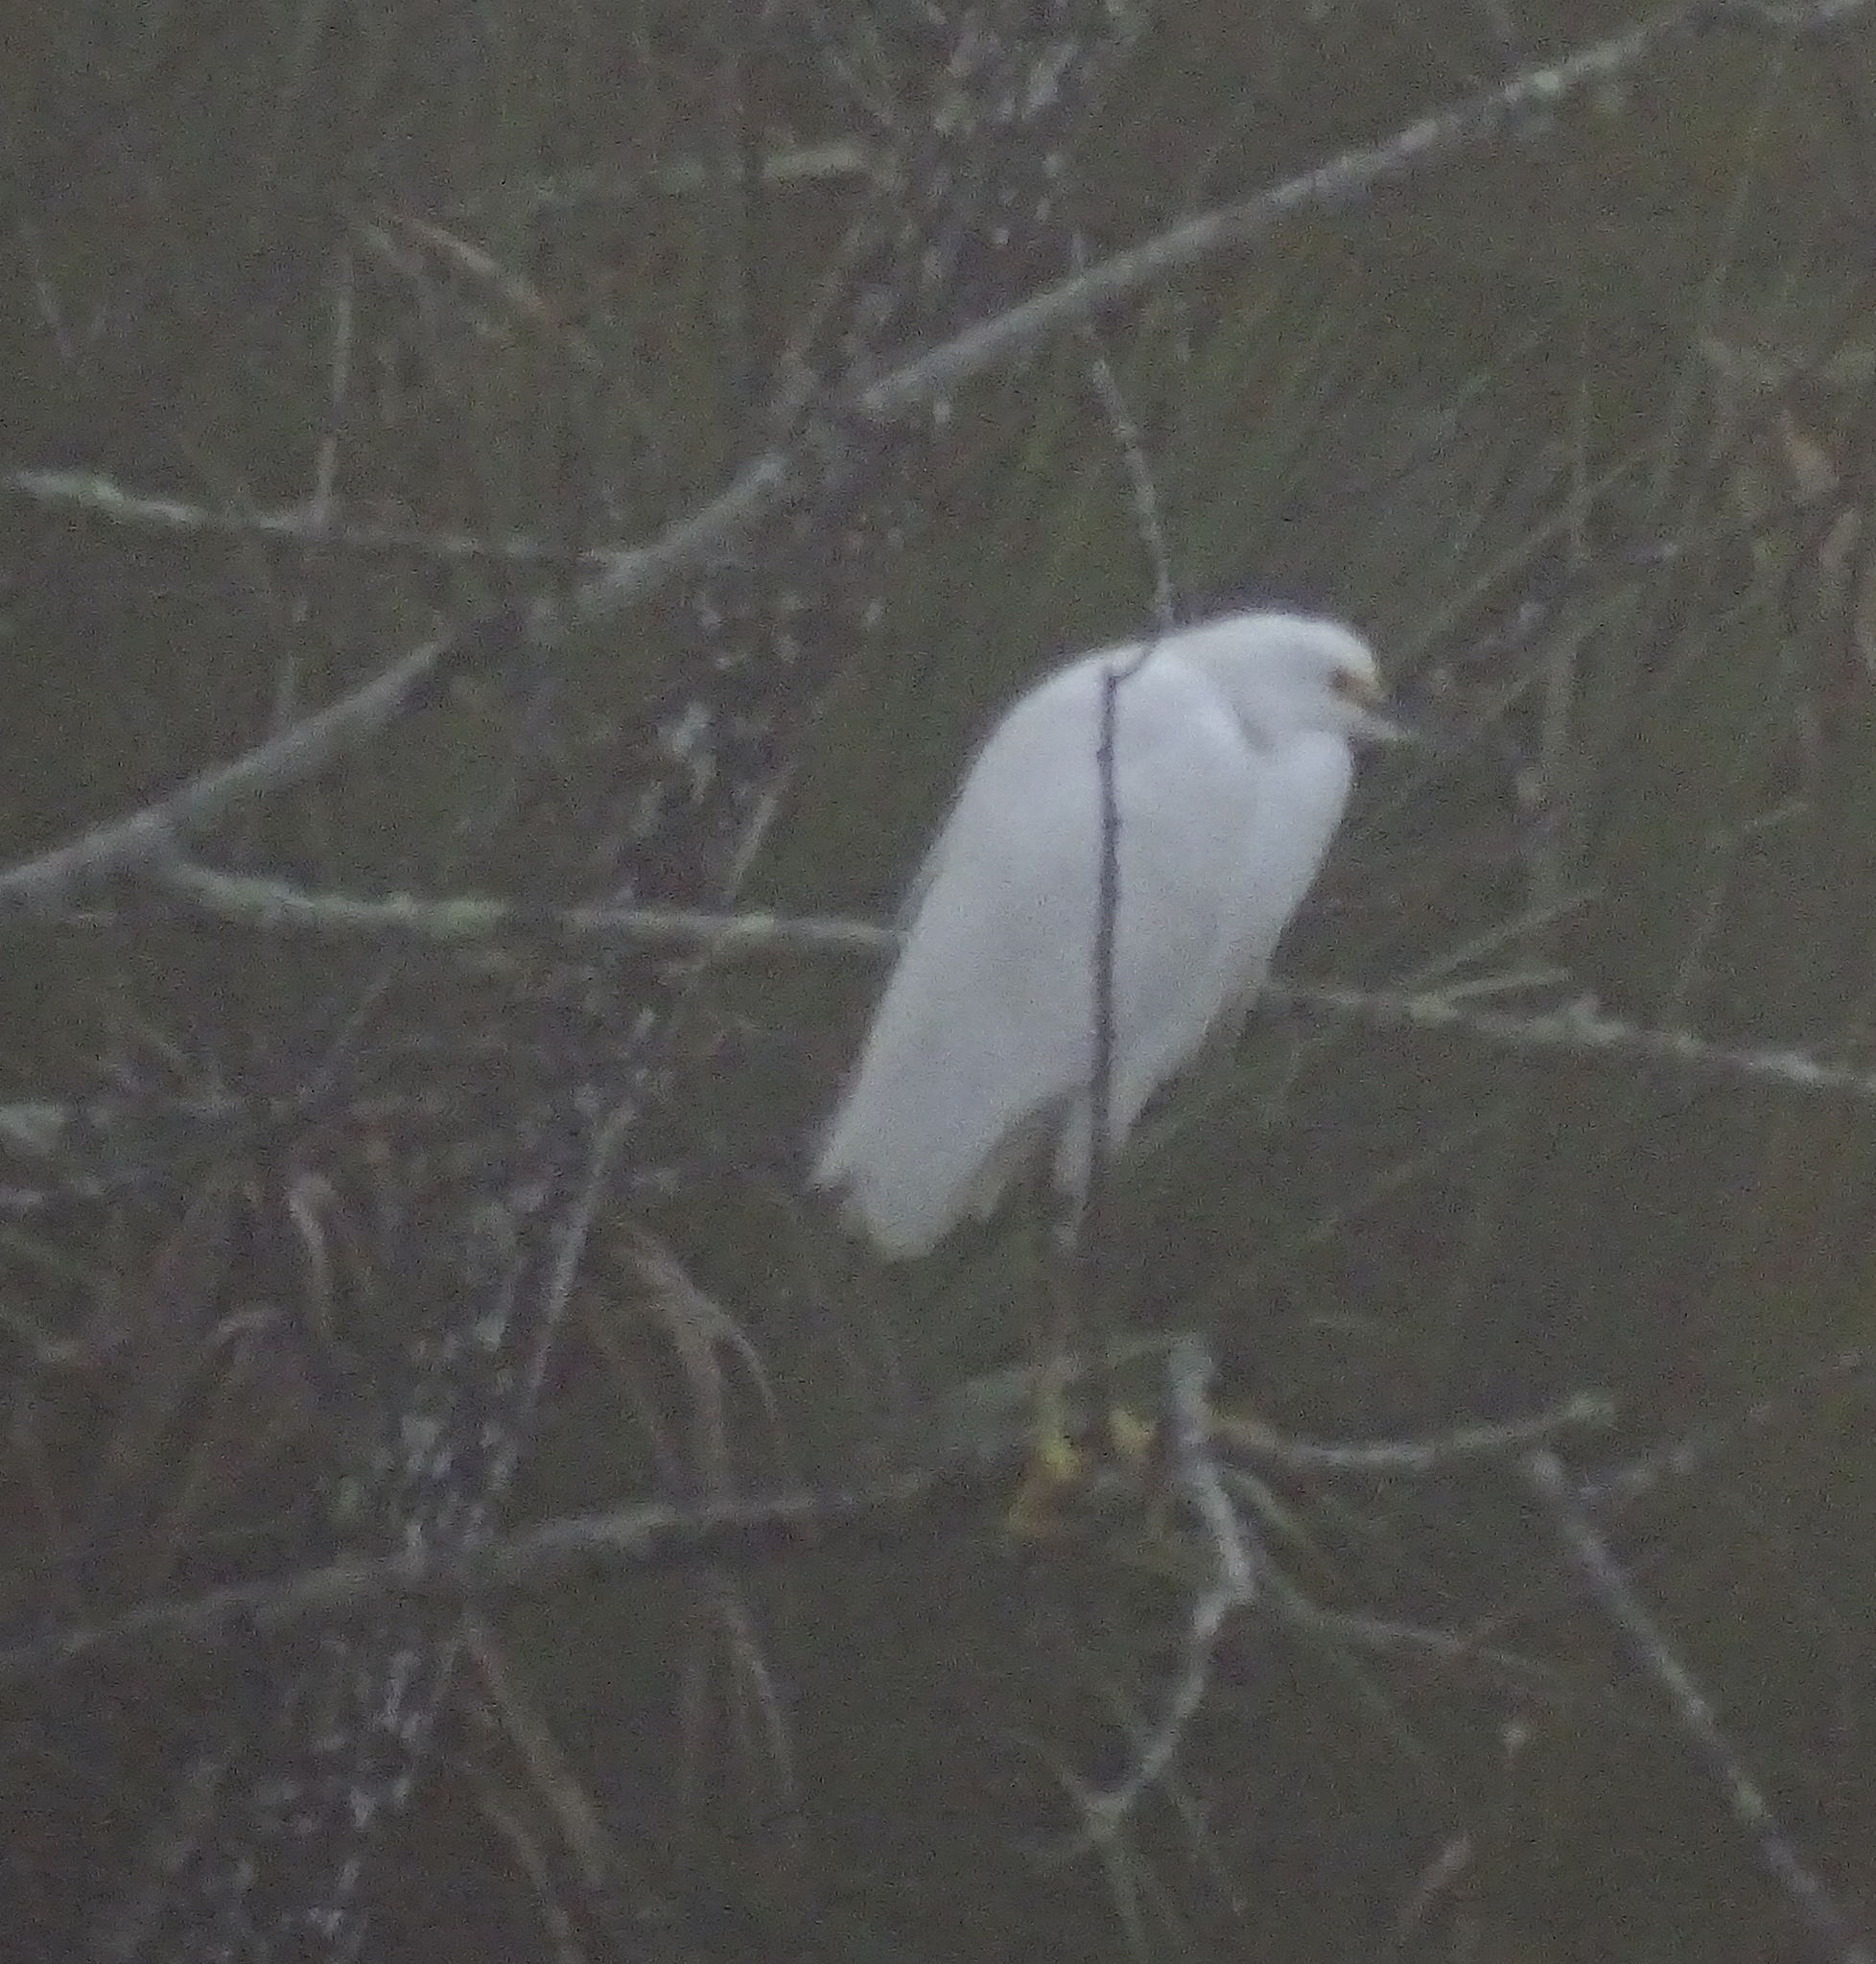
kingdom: Animalia
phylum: Chordata
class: Aves
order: Pelecaniformes
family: Ardeidae
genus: Egretta
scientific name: Egretta thula
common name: Snowy egret
